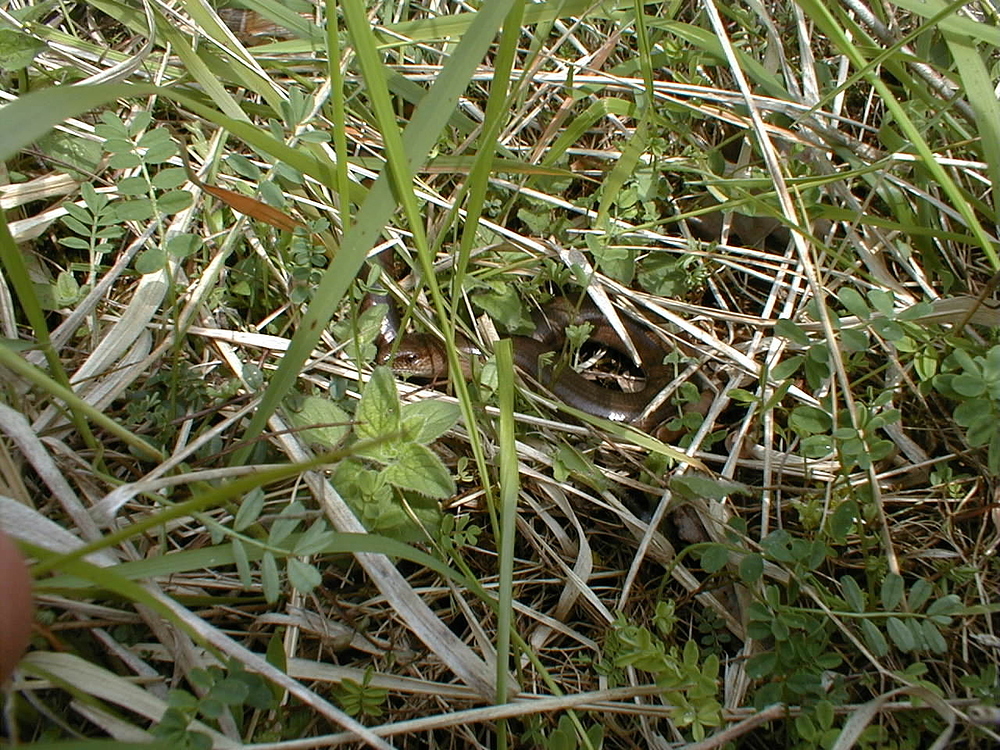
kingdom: Animalia
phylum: Chordata
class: Squamata
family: Anguidae
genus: Anguis
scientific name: Anguis fragilis
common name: Slow worm
